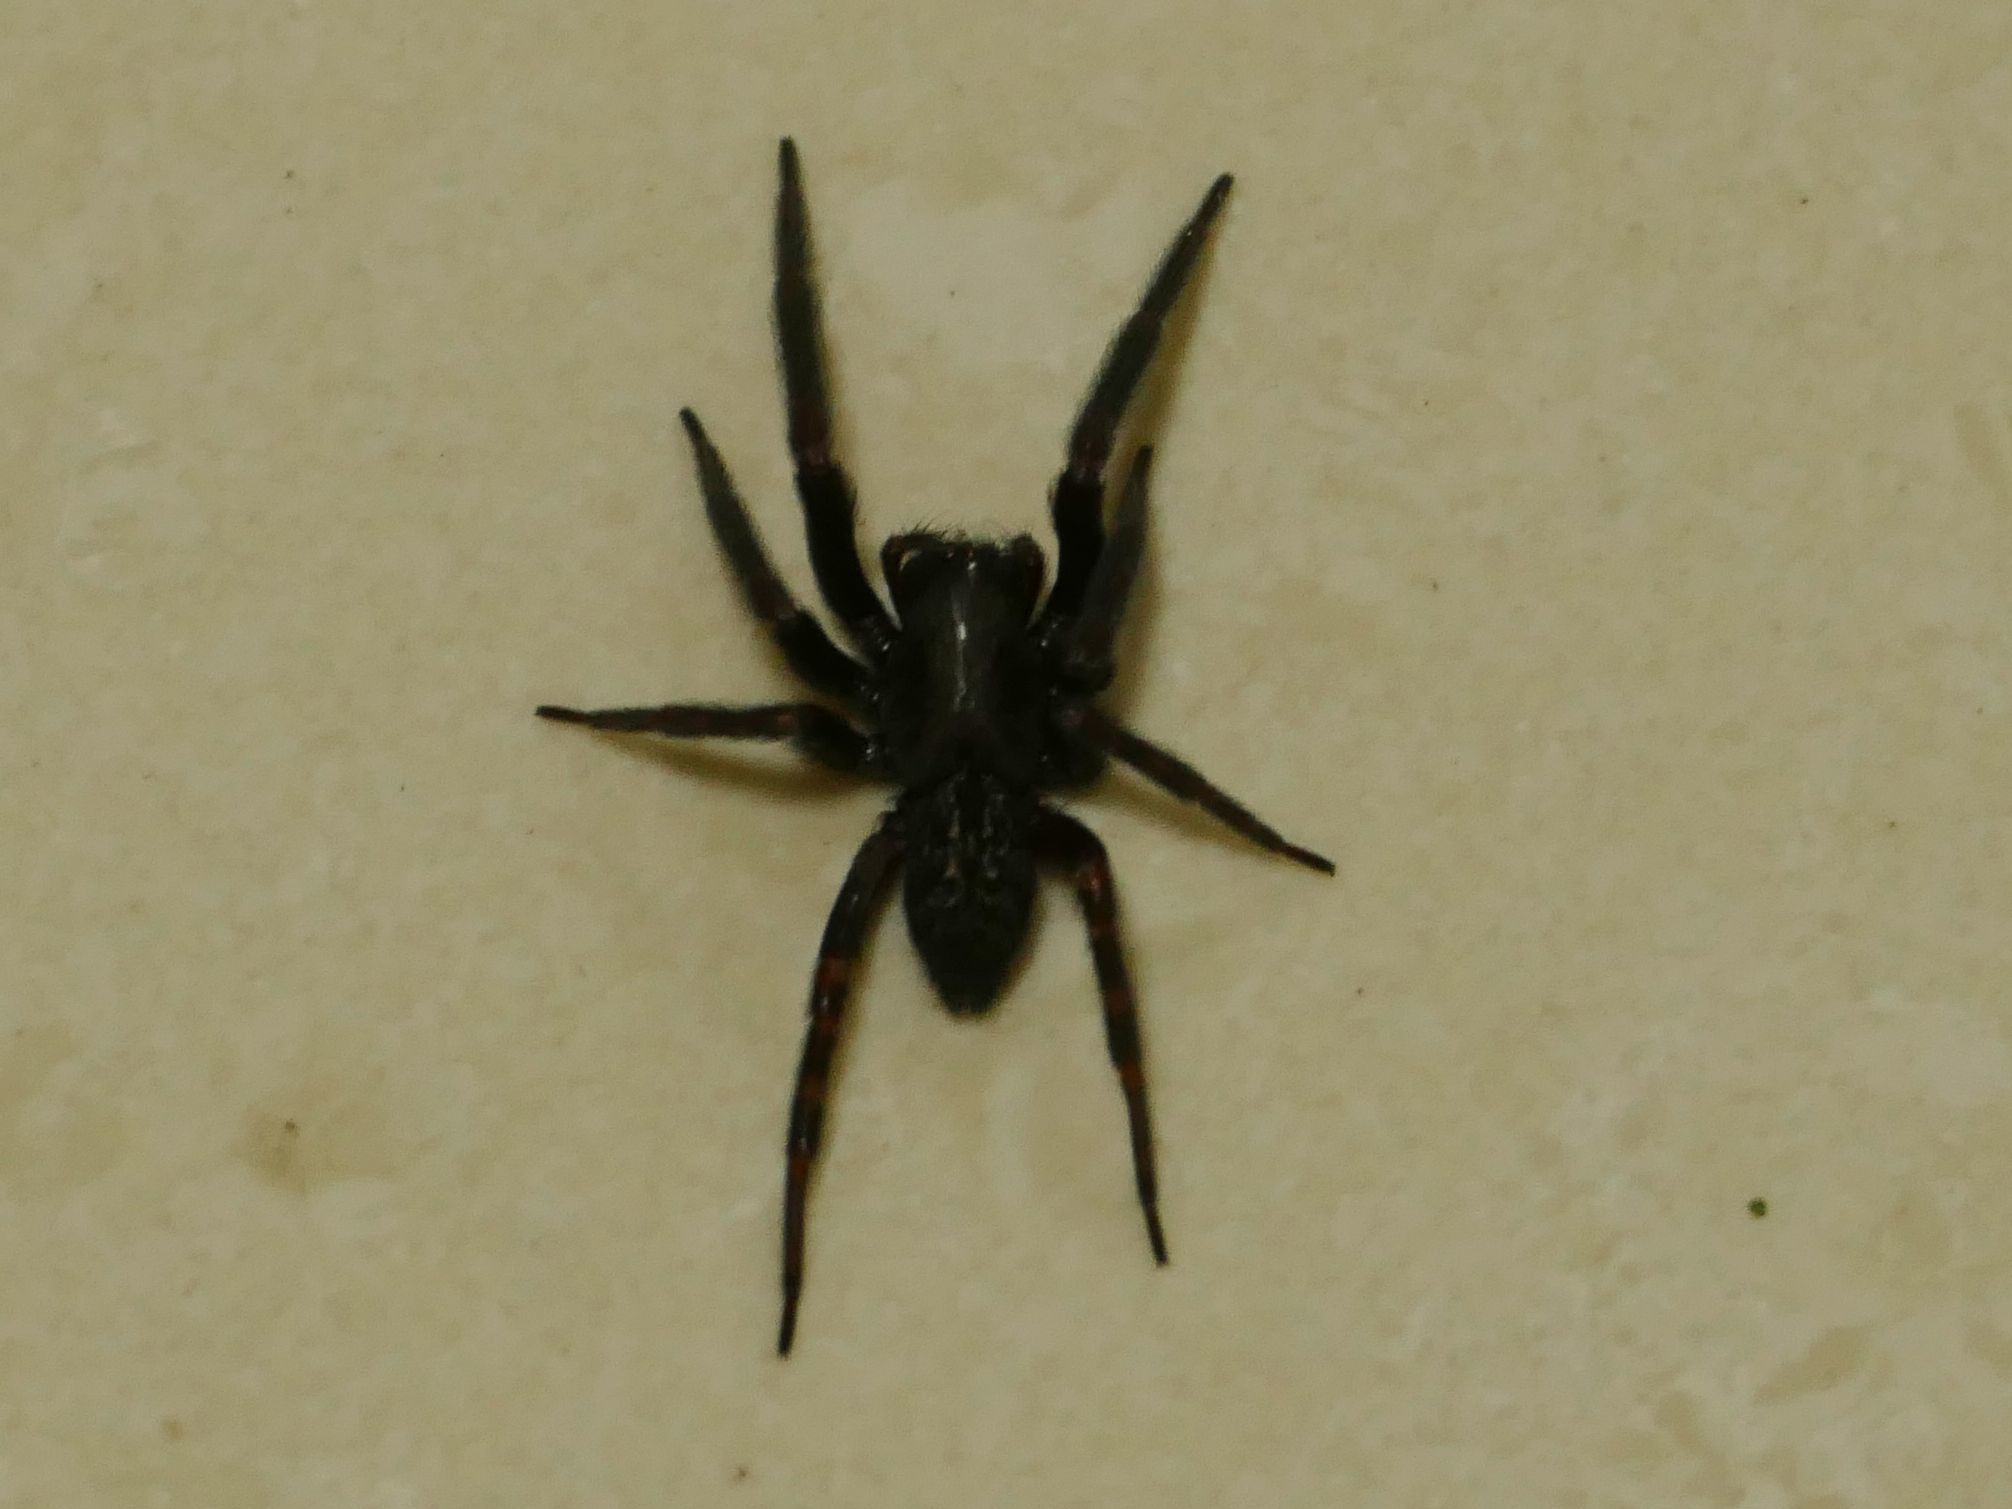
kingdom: Animalia
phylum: Arthropoda
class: Arachnida
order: Araneae
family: Desidae
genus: Badumna
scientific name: Badumna insignis
